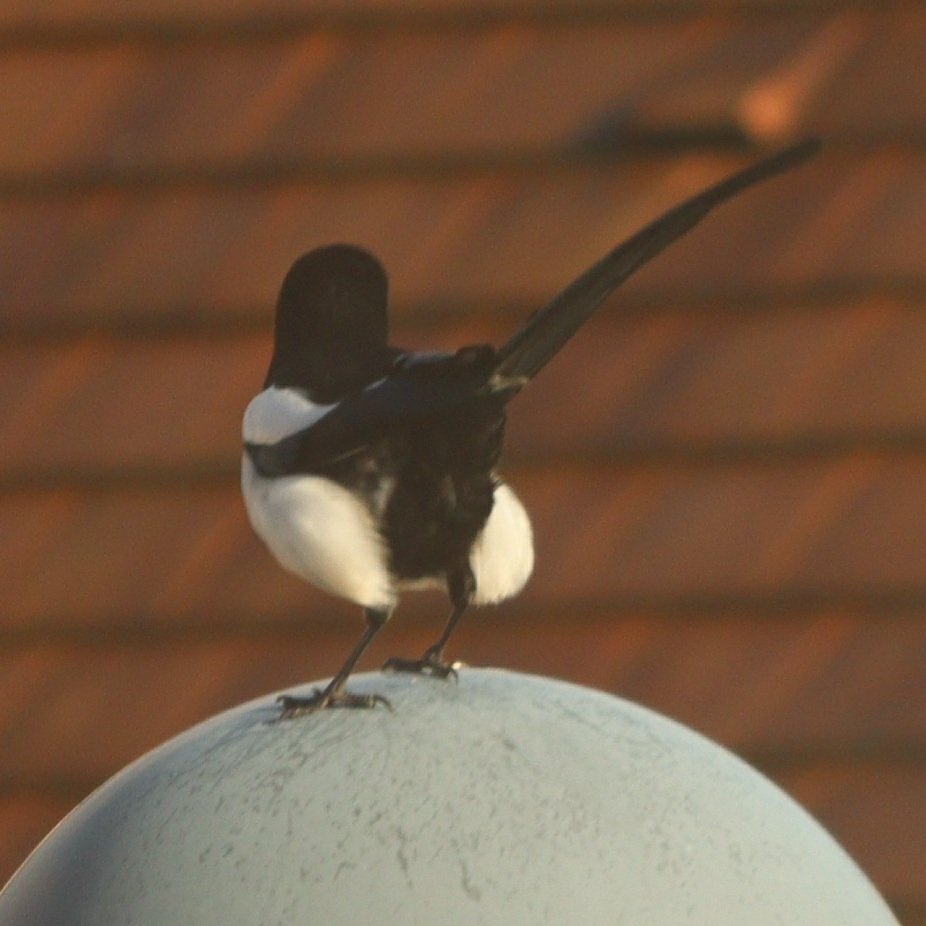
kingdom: Animalia
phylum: Chordata
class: Aves
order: Passeriformes
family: Corvidae
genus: Pica
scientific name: Pica pica
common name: Eurasian magpie
